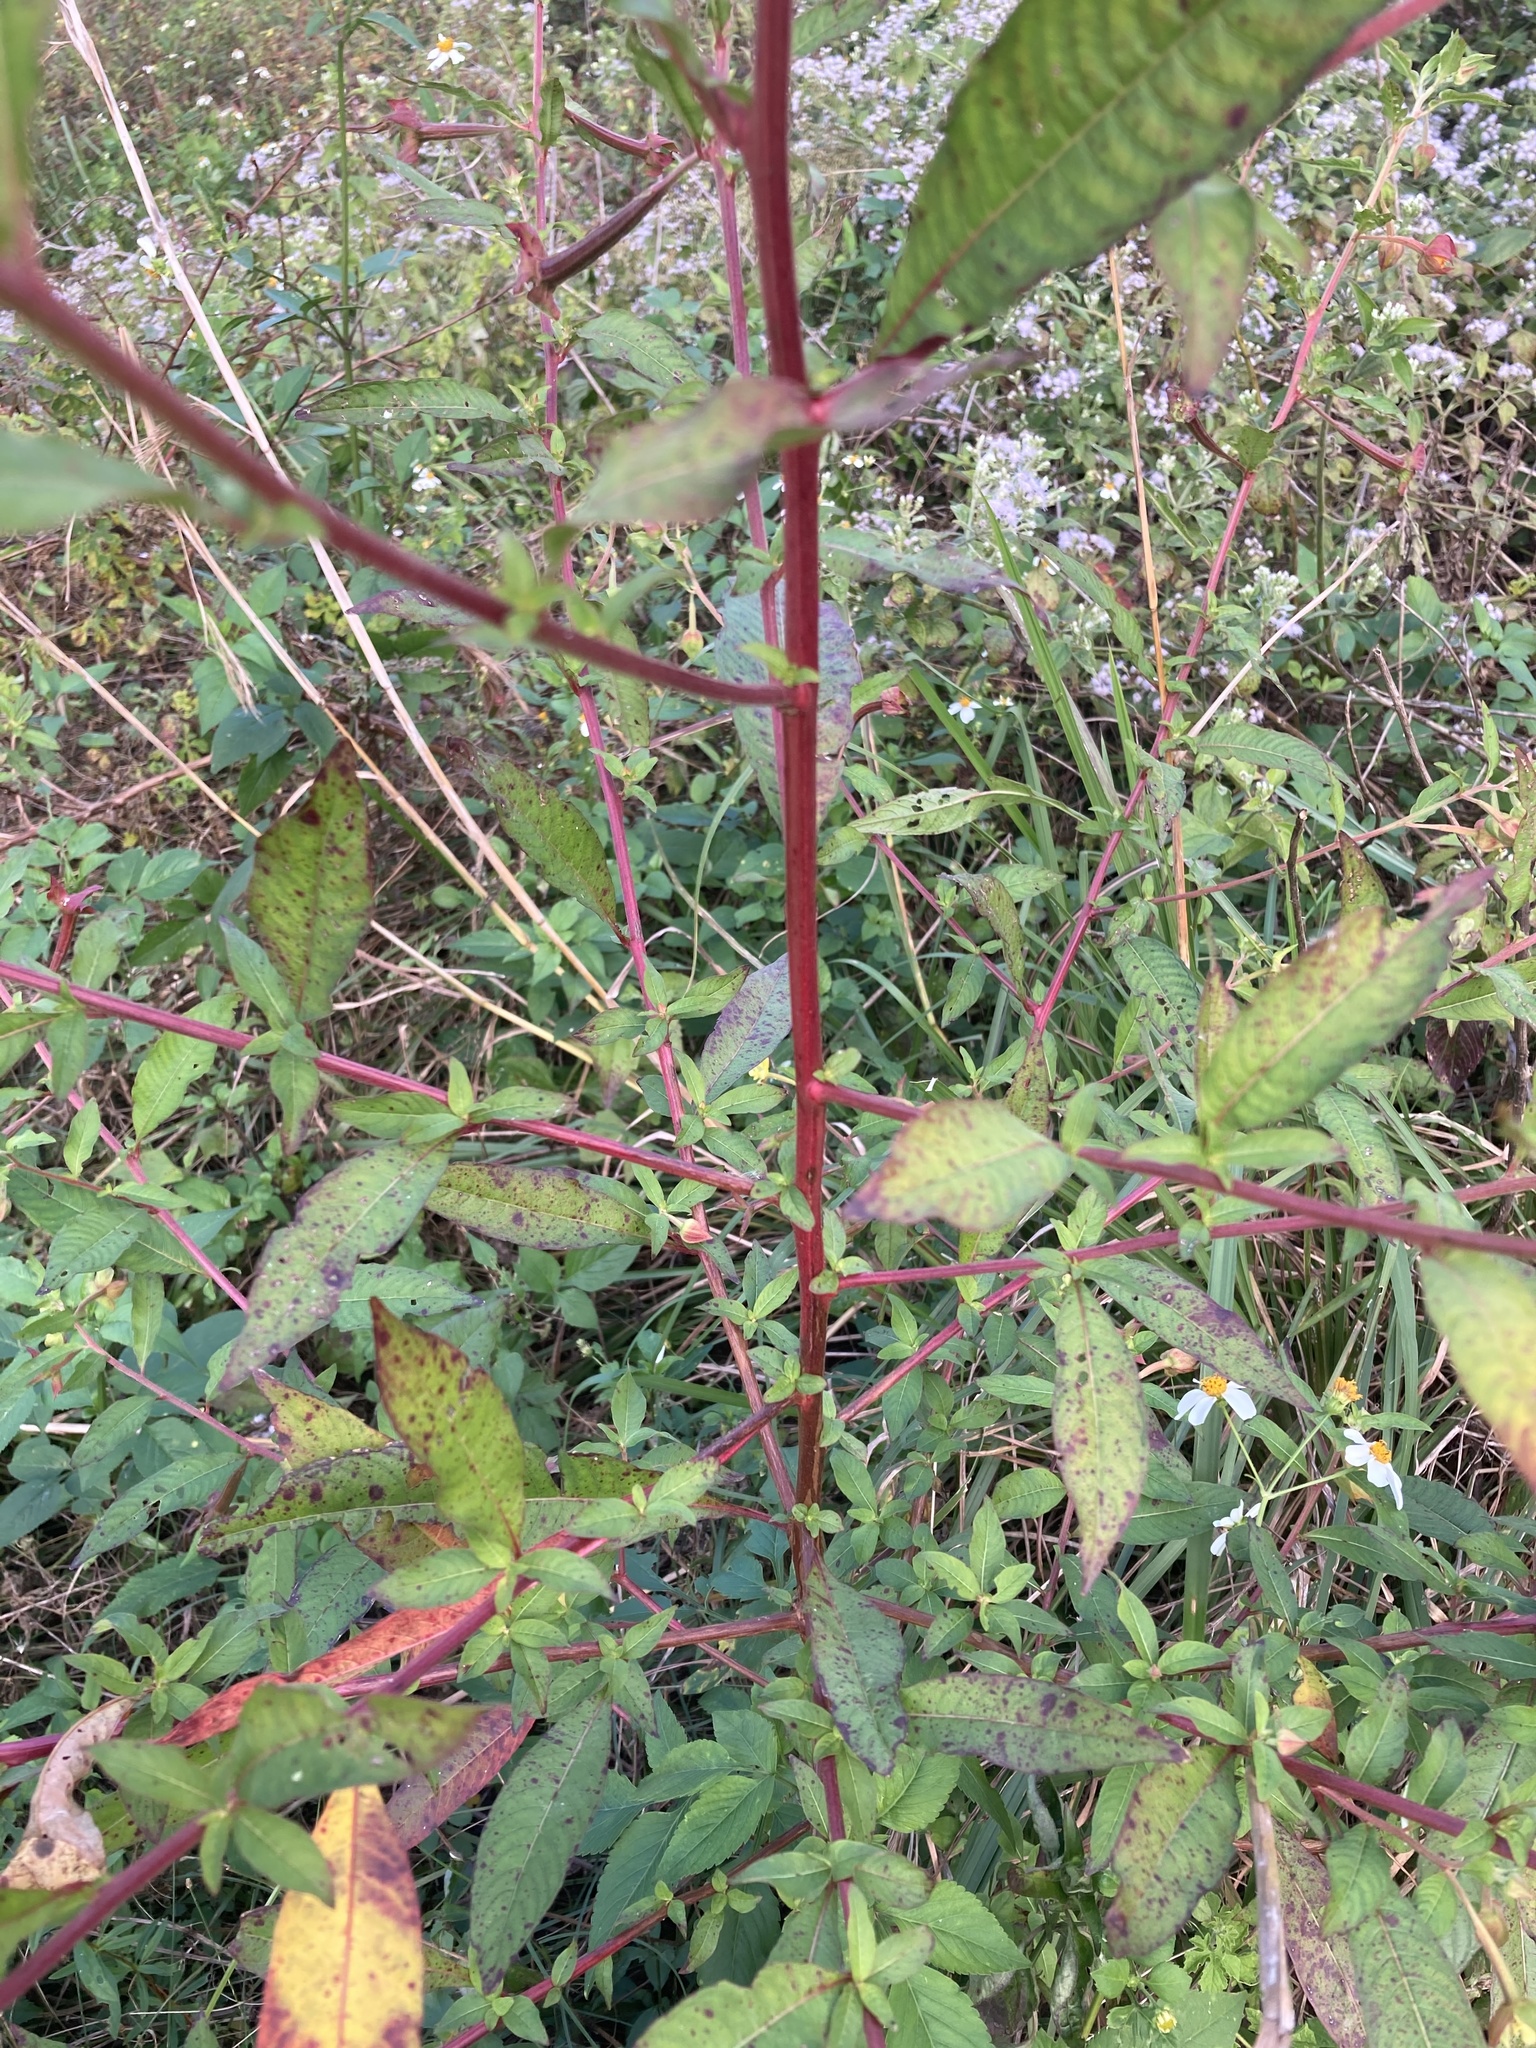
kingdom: Plantae
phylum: Tracheophyta
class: Magnoliopsida
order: Myrtales
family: Onagraceae
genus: Ludwigia
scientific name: Ludwigia octovalvis
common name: Water-primrose
